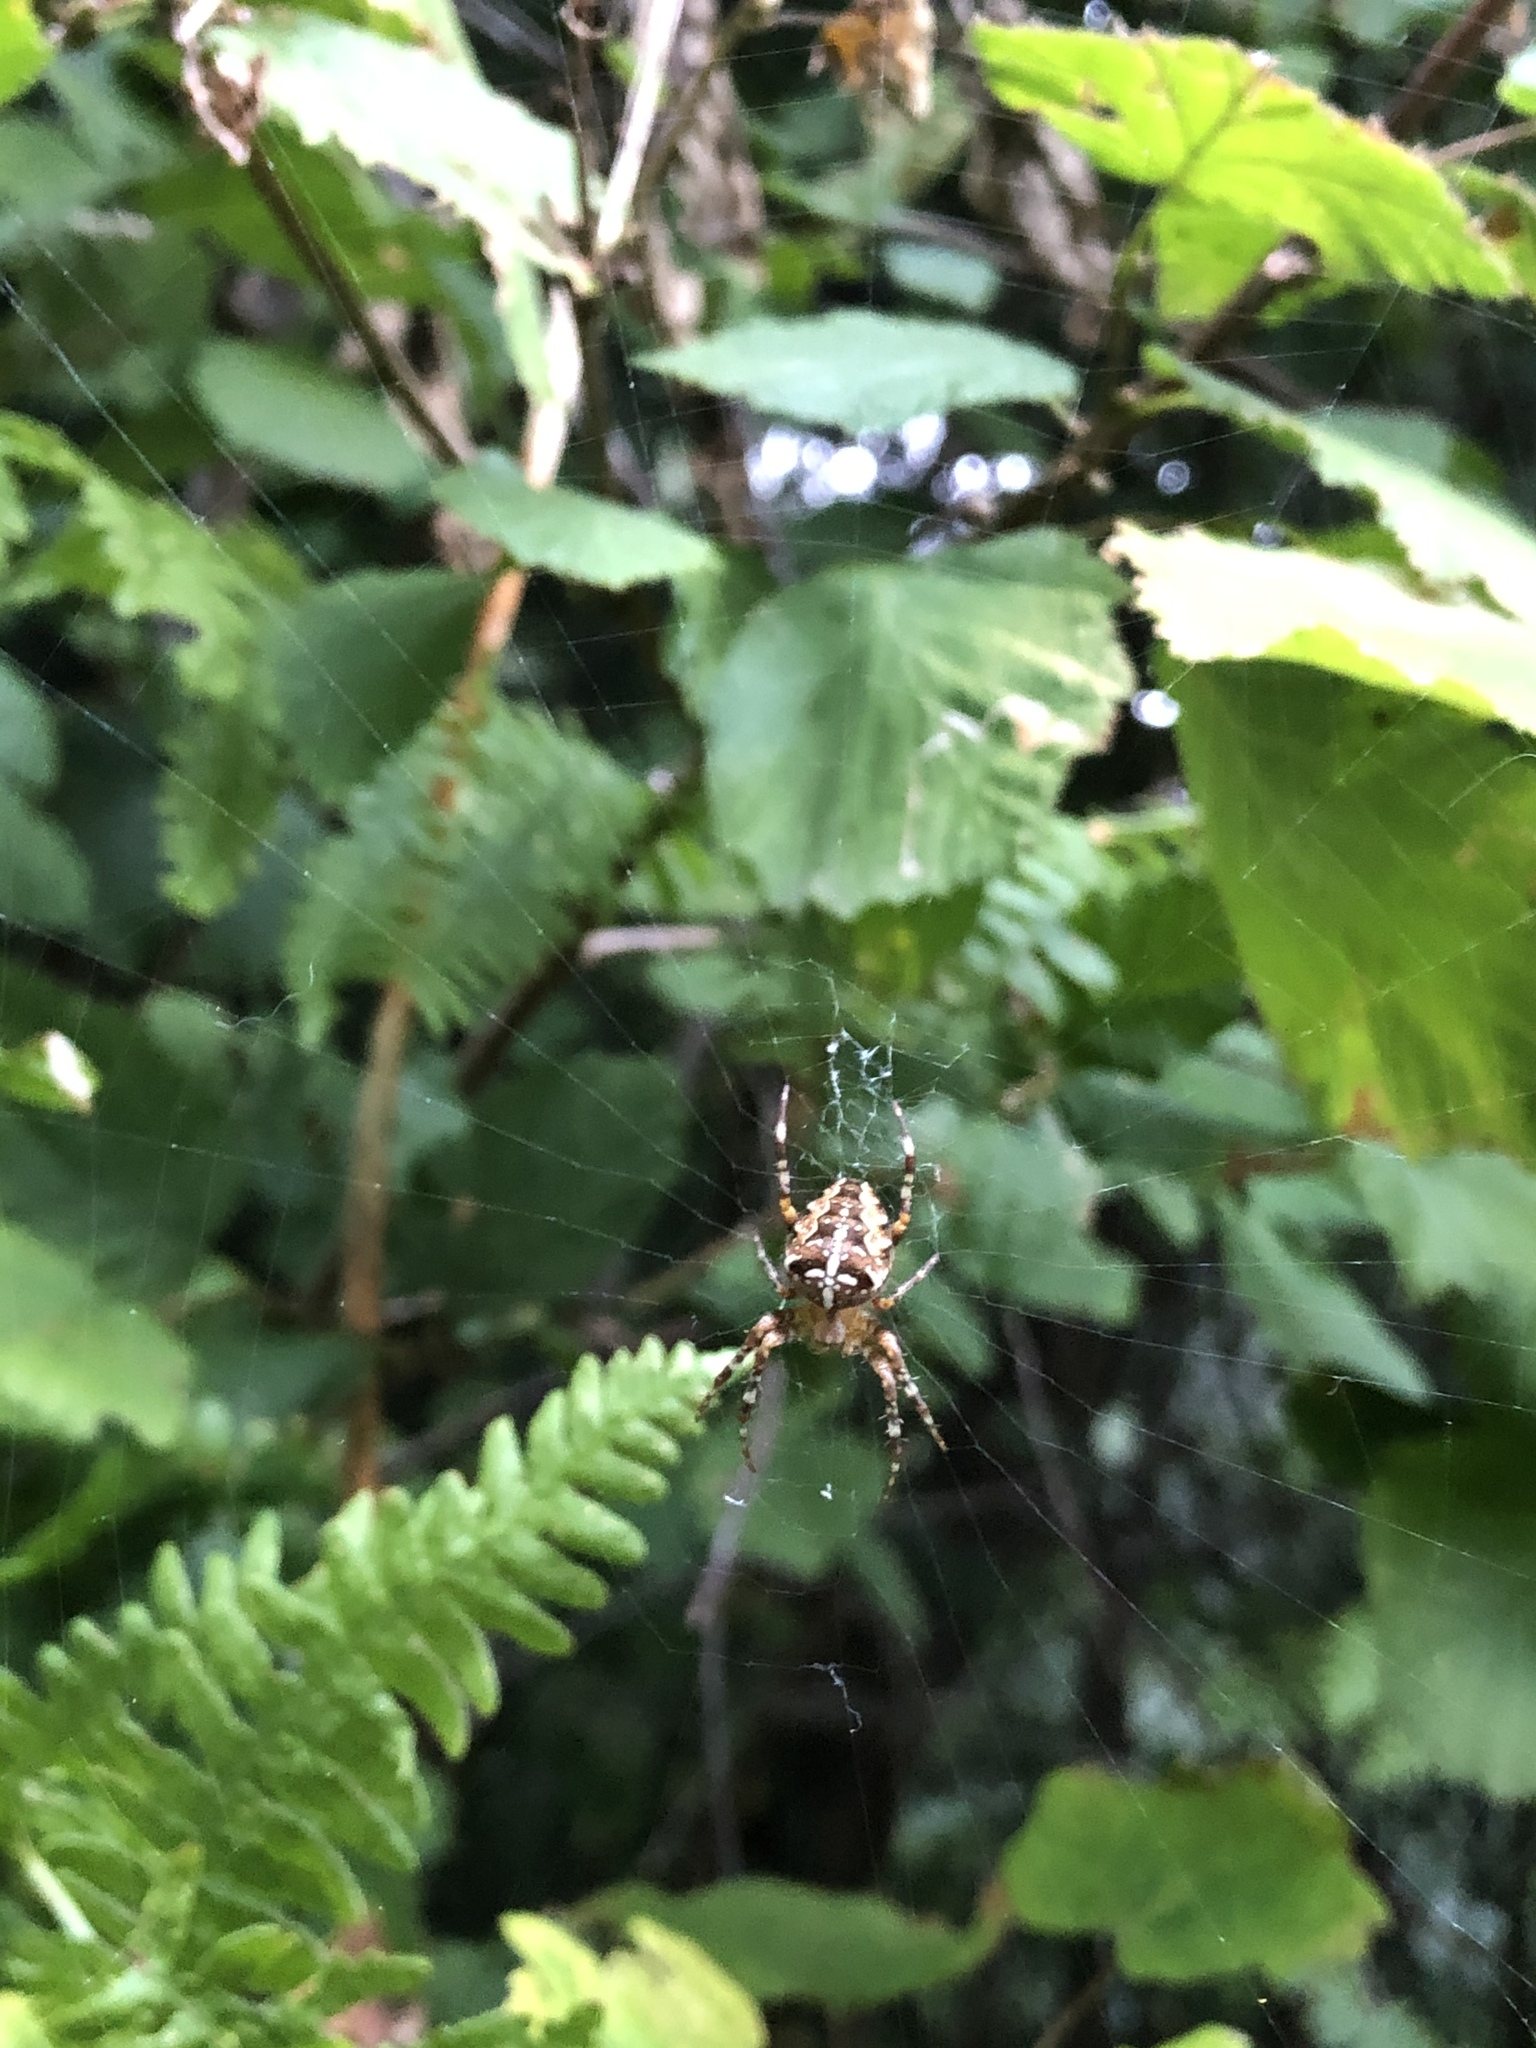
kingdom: Animalia
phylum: Arthropoda
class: Arachnida
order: Araneae
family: Araneidae
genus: Araneus
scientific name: Araneus diadematus
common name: Cross orbweaver
